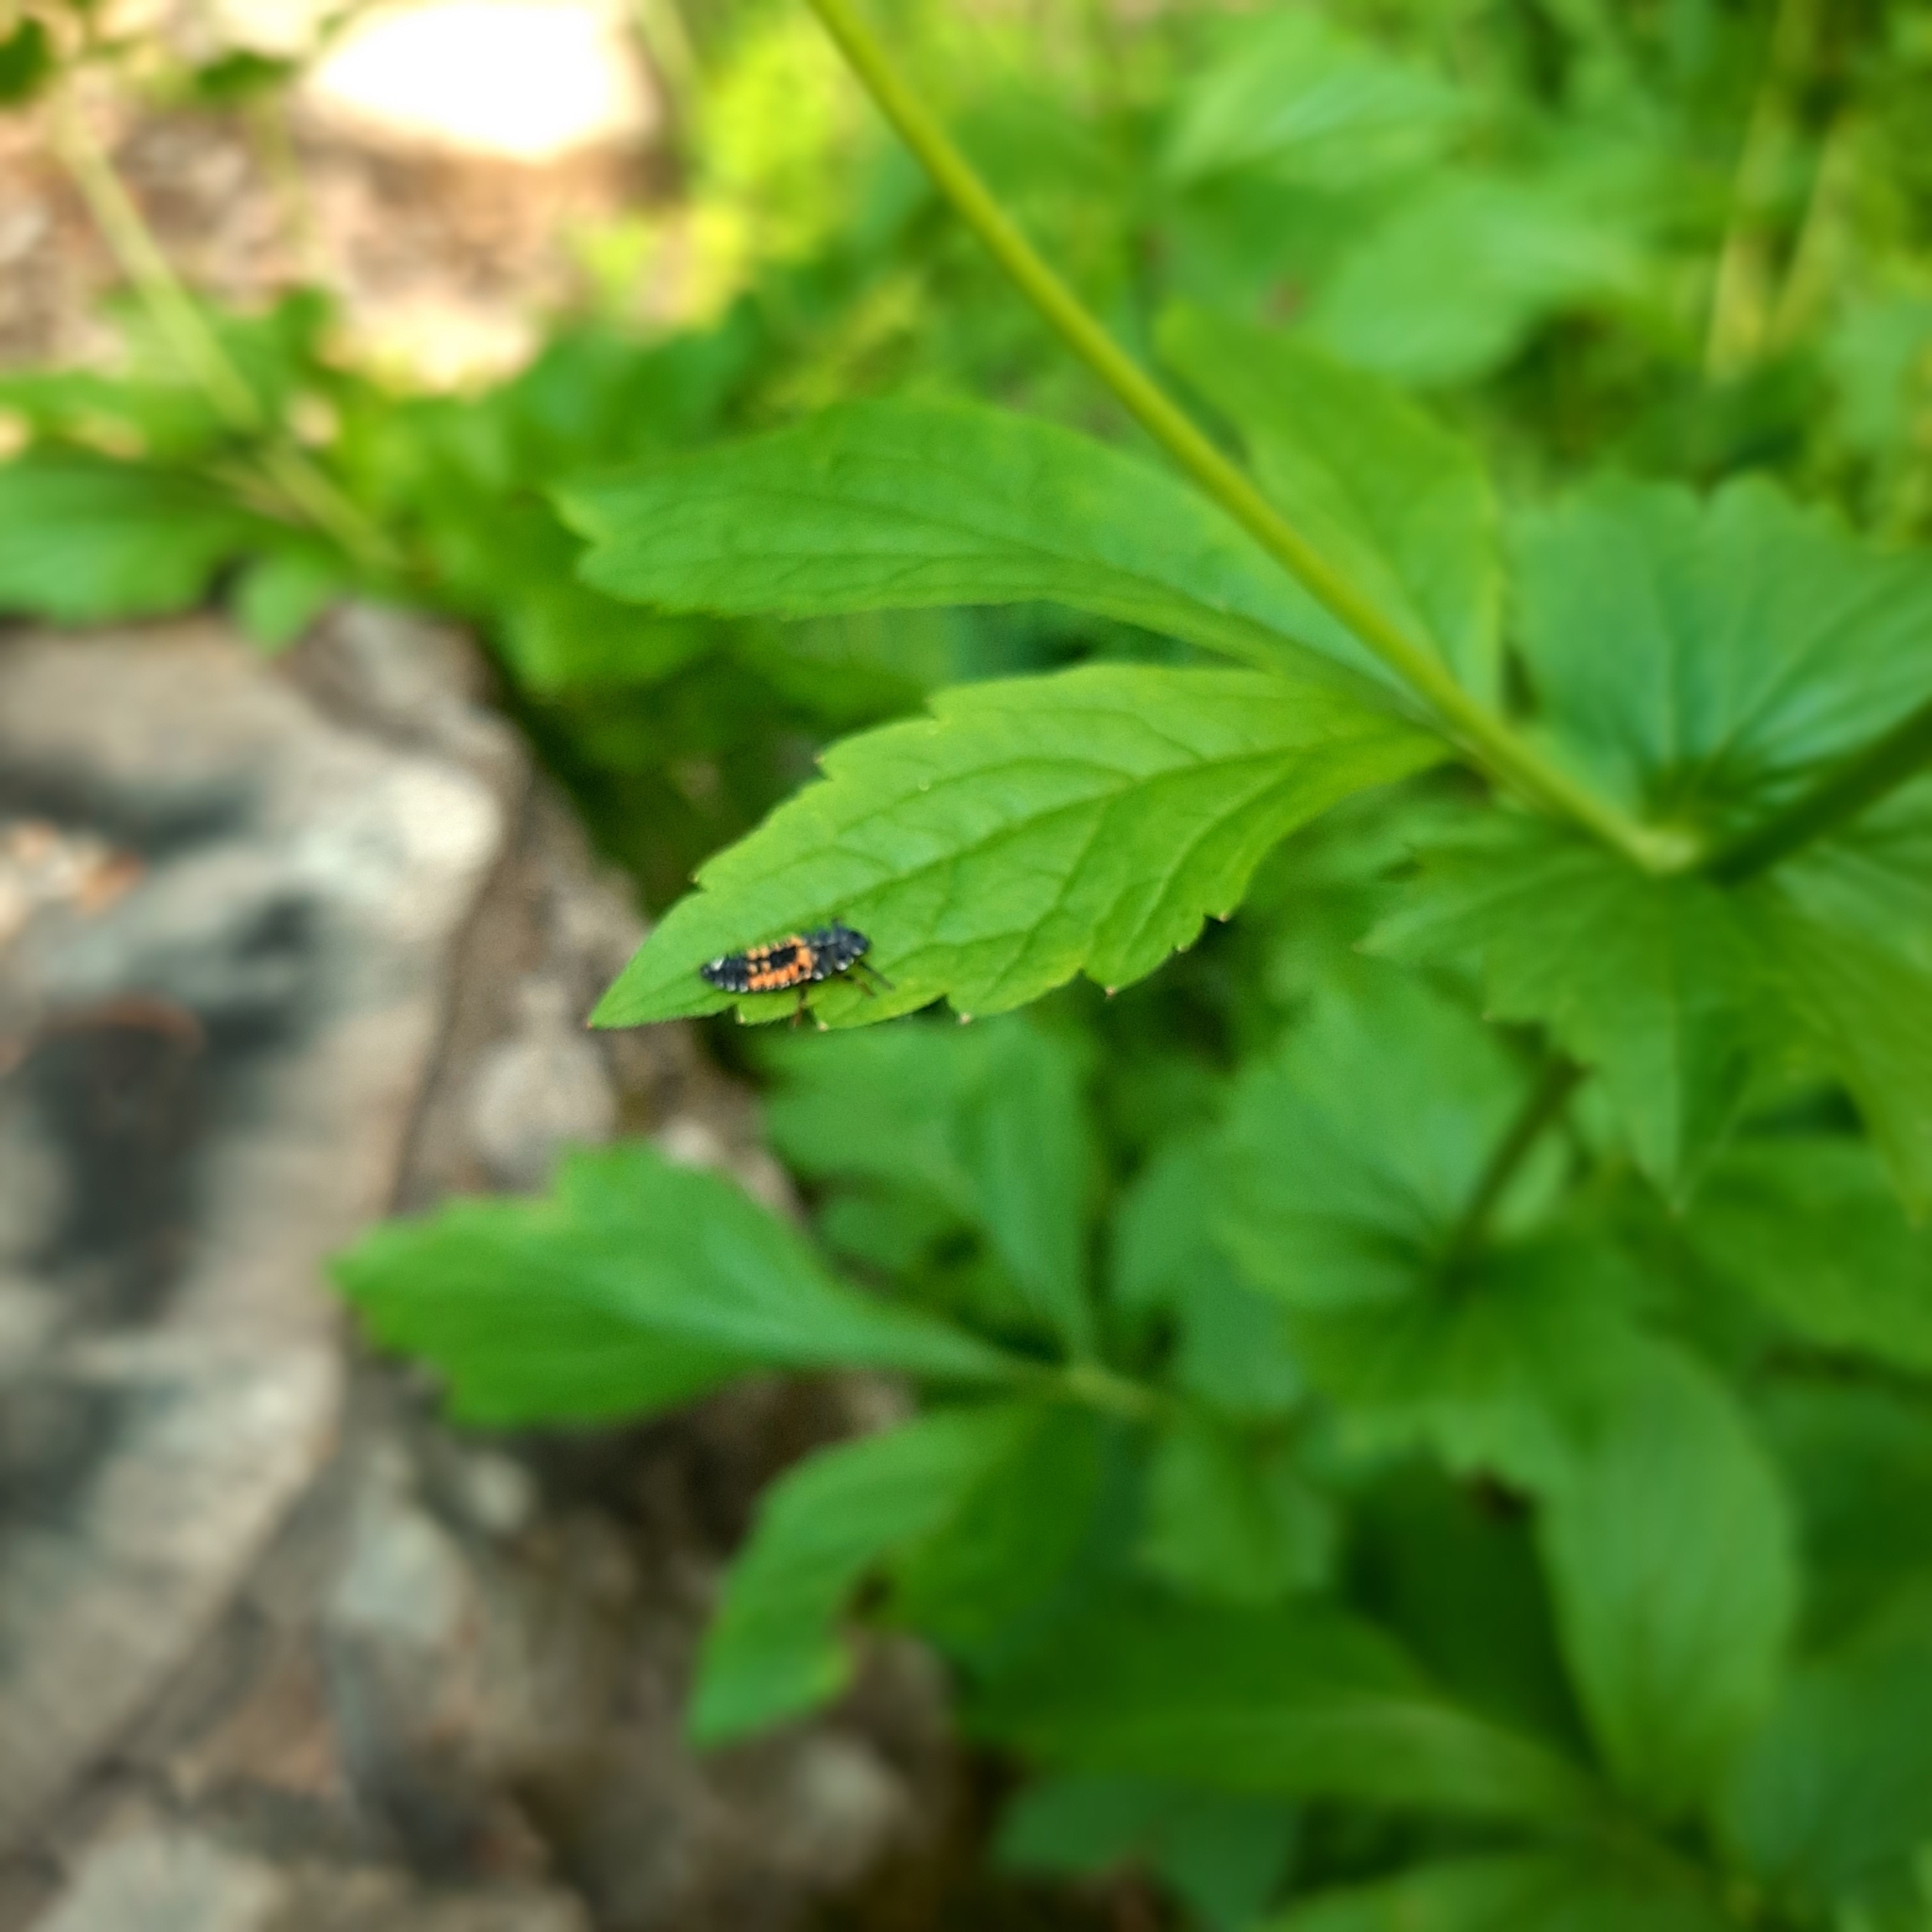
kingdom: Animalia
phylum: Arthropoda
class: Insecta
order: Coleoptera
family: Coccinellidae
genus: Harmonia
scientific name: Harmonia axyridis
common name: Harlequin ladybird
